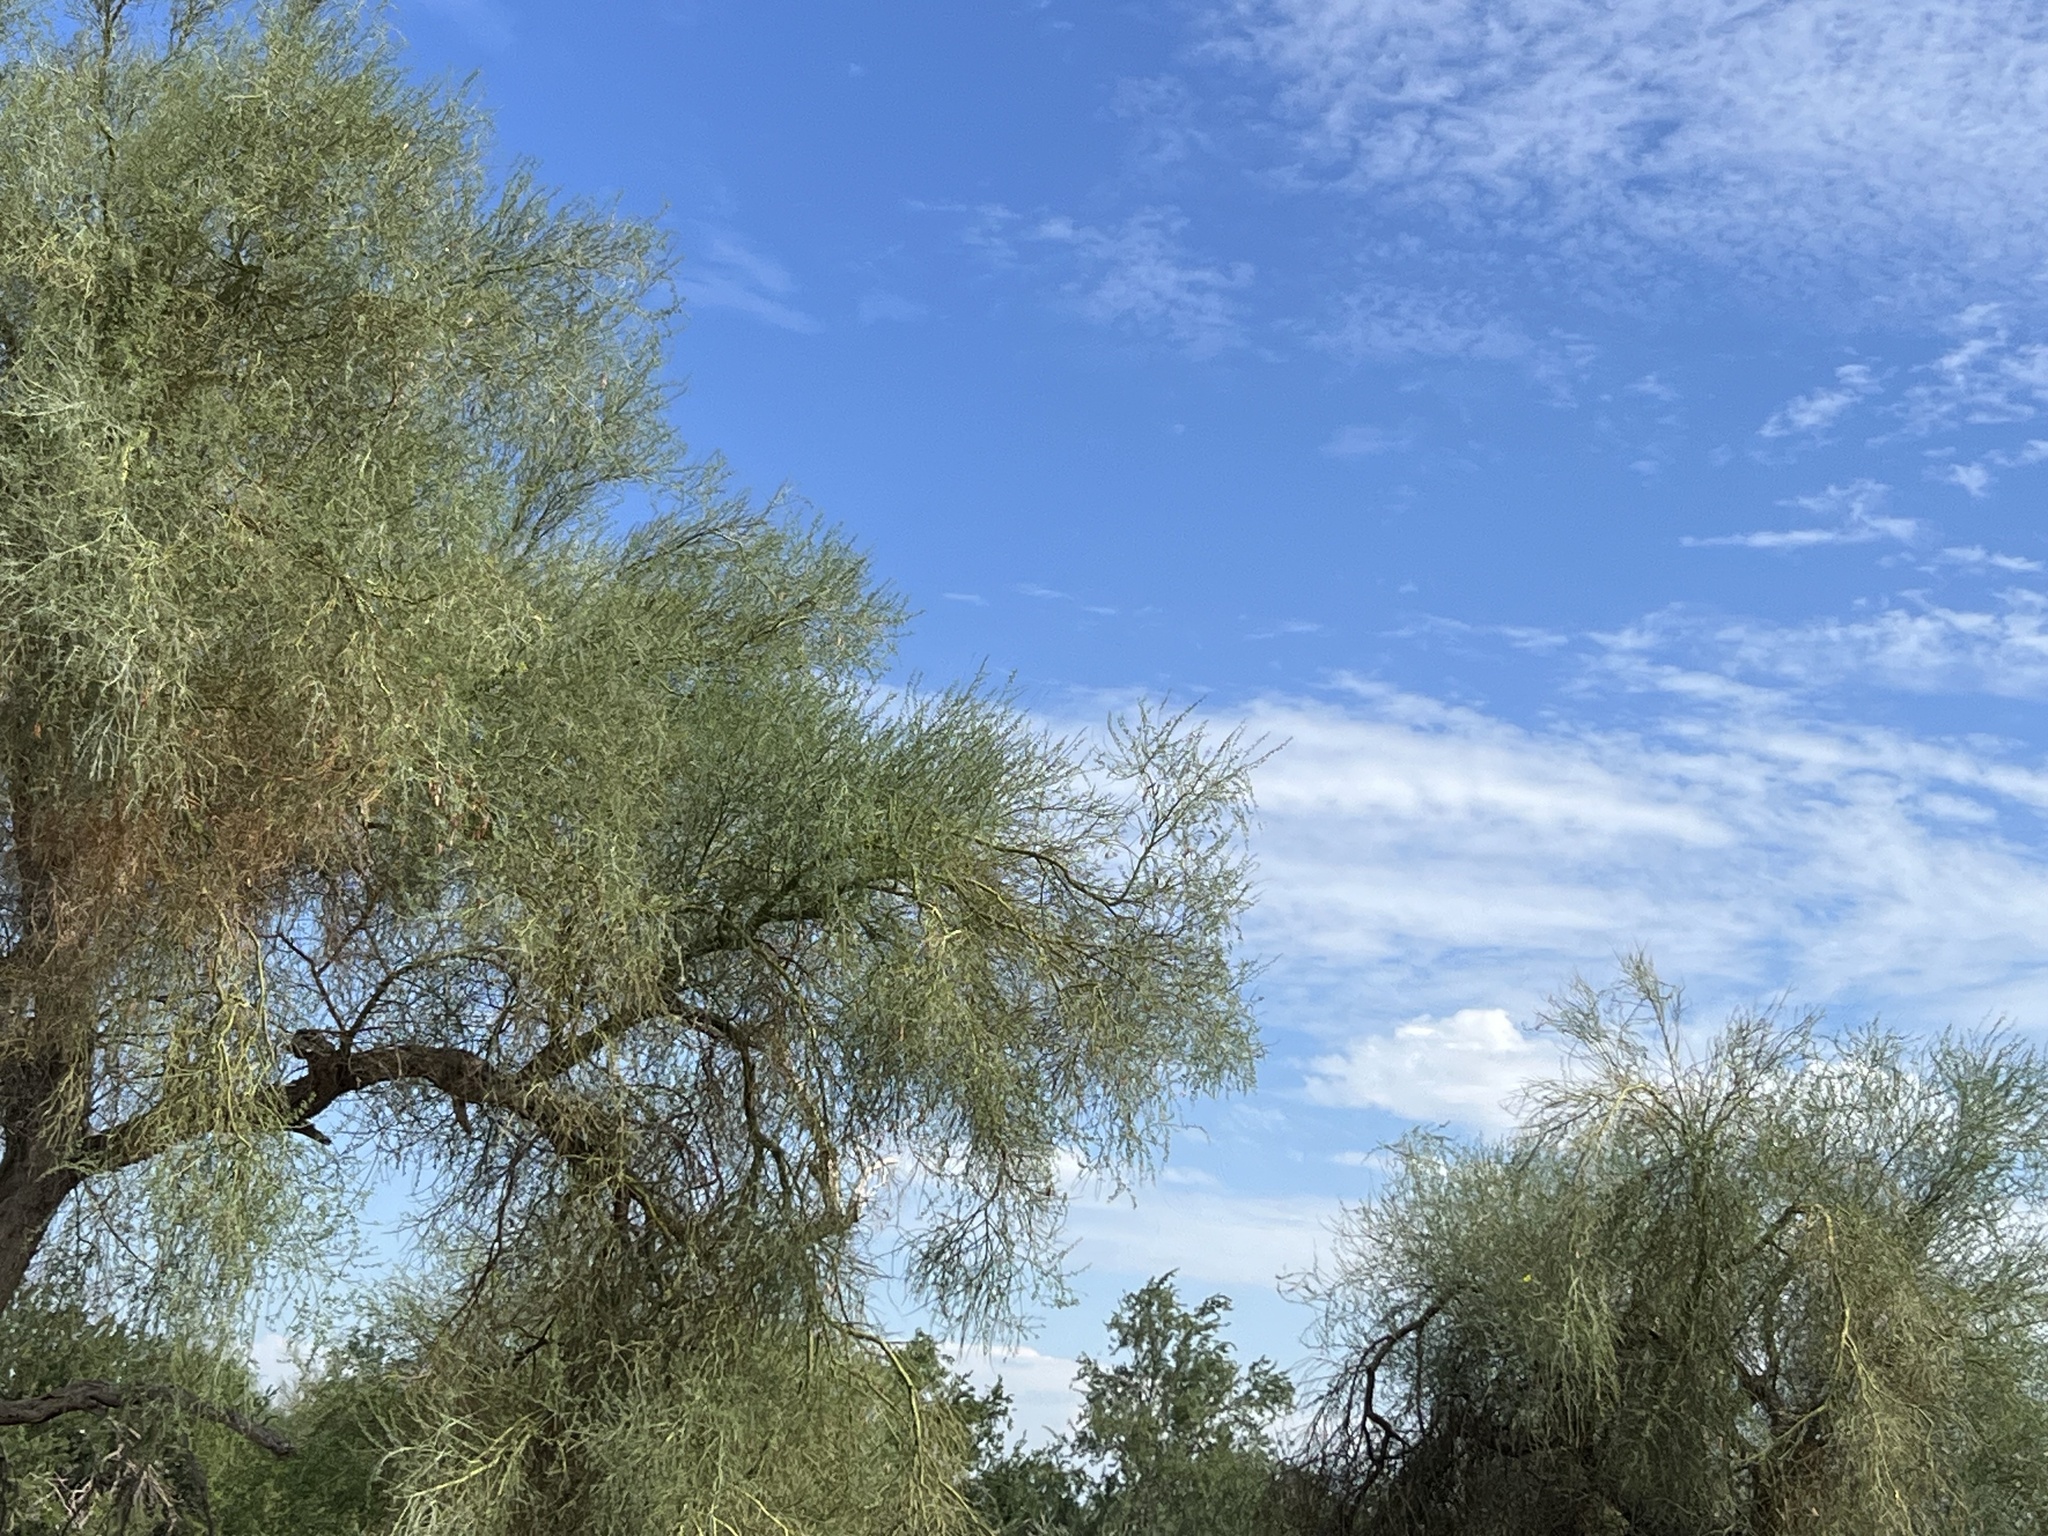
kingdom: Plantae
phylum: Tracheophyta
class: Magnoliopsida
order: Fabales
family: Fabaceae
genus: Parkinsonia
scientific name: Parkinsonia florida
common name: Blue paloverde
